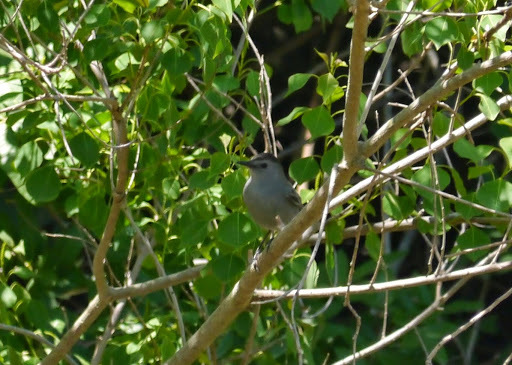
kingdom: Animalia
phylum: Chordata
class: Aves
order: Passeriformes
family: Mimidae
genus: Dumetella
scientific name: Dumetella carolinensis
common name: Gray catbird
